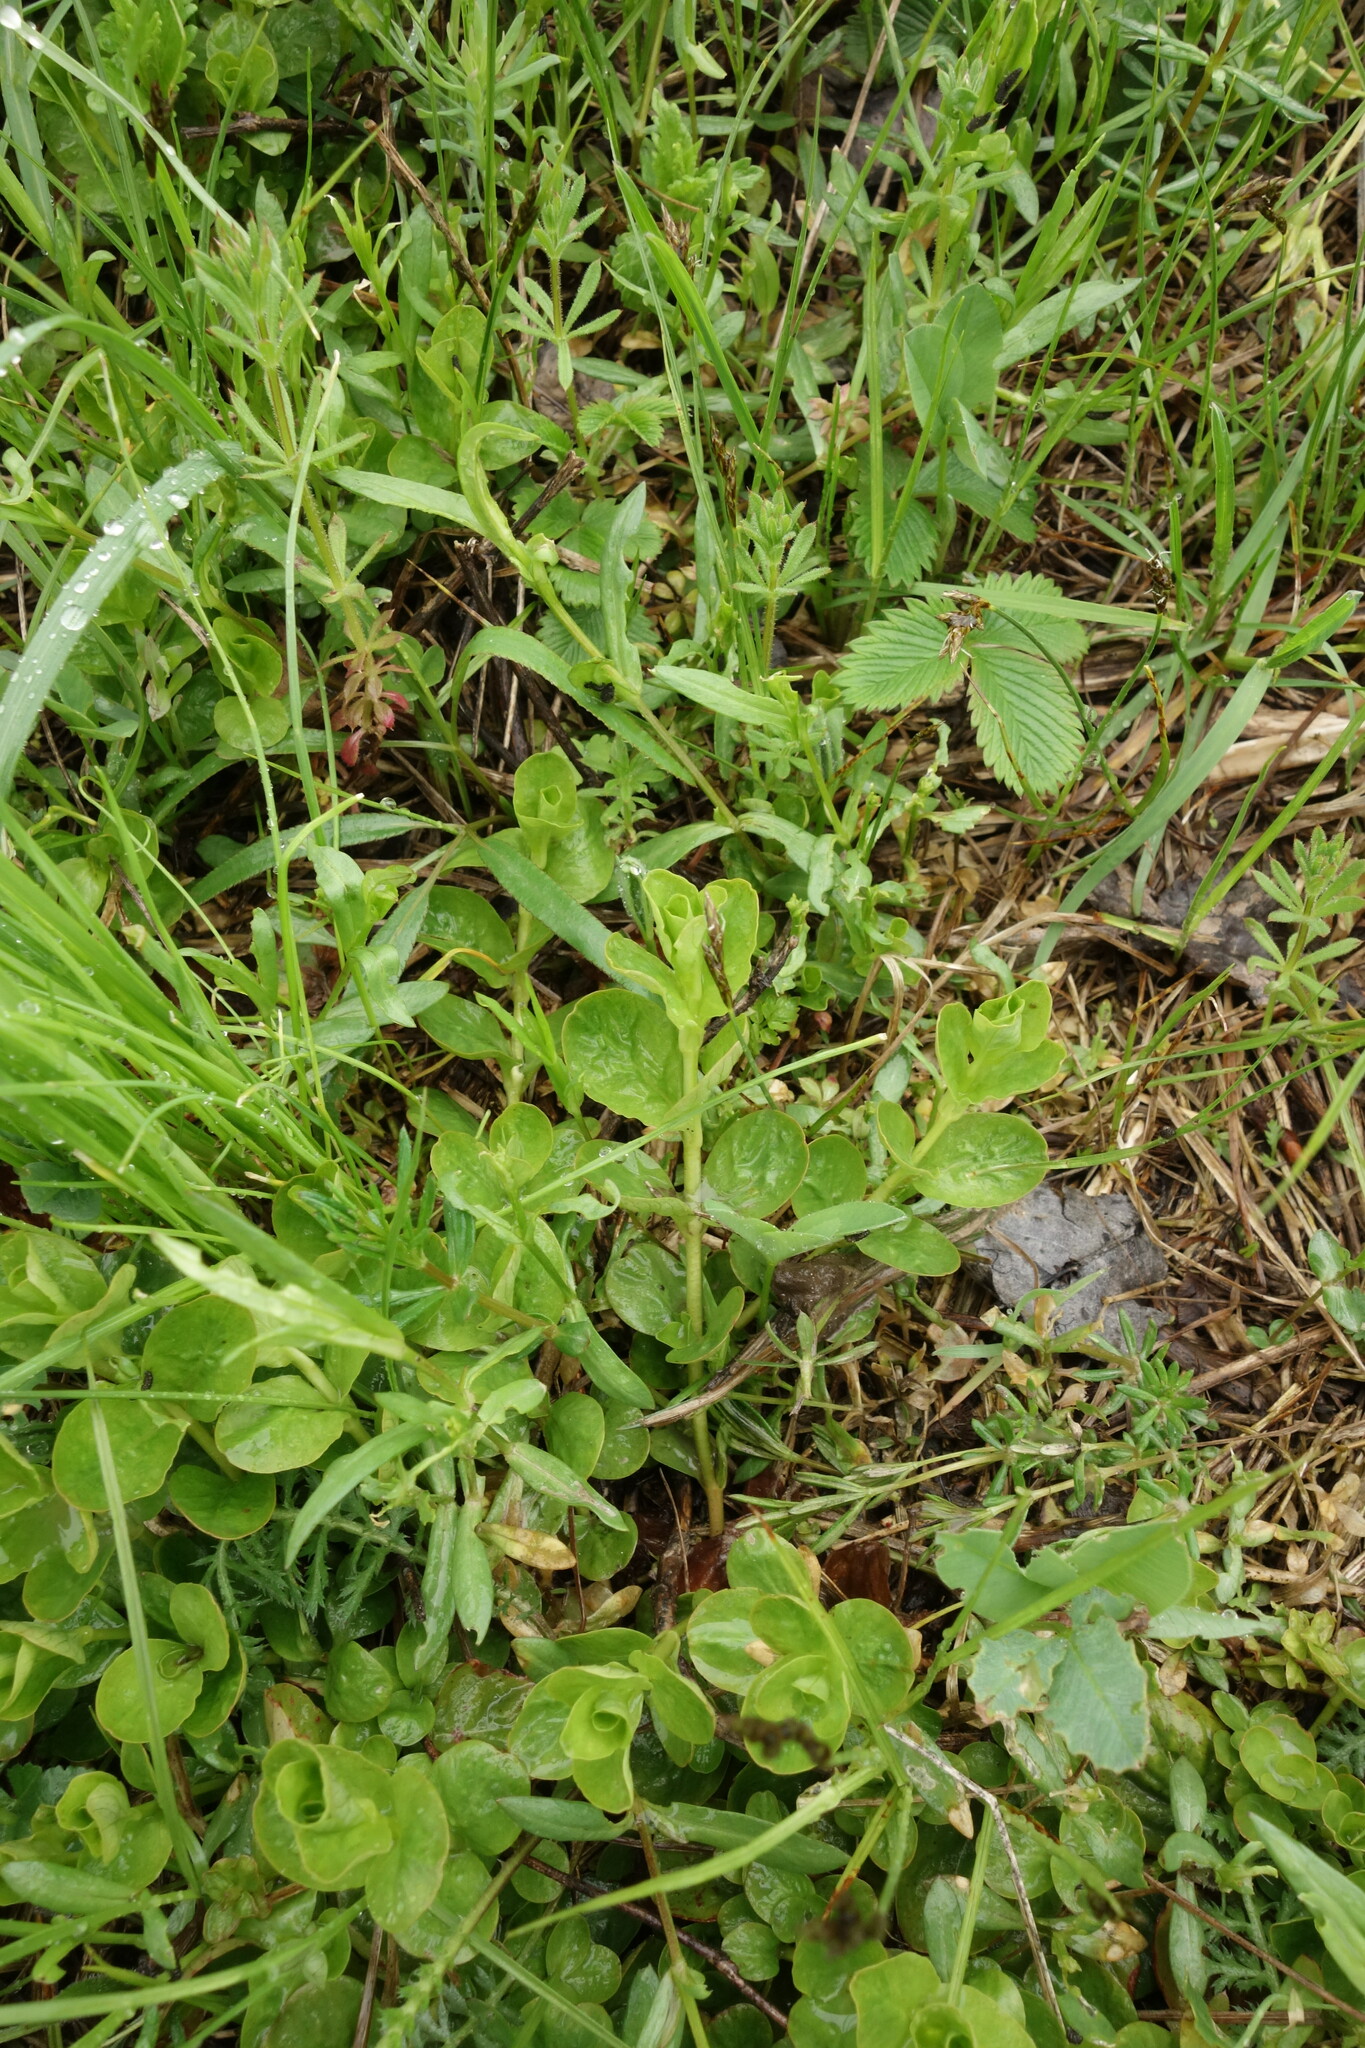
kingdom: Plantae
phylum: Tracheophyta
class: Magnoliopsida
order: Ericales
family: Primulaceae
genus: Lysimachia
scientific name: Lysimachia nummularia
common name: Moneywort
